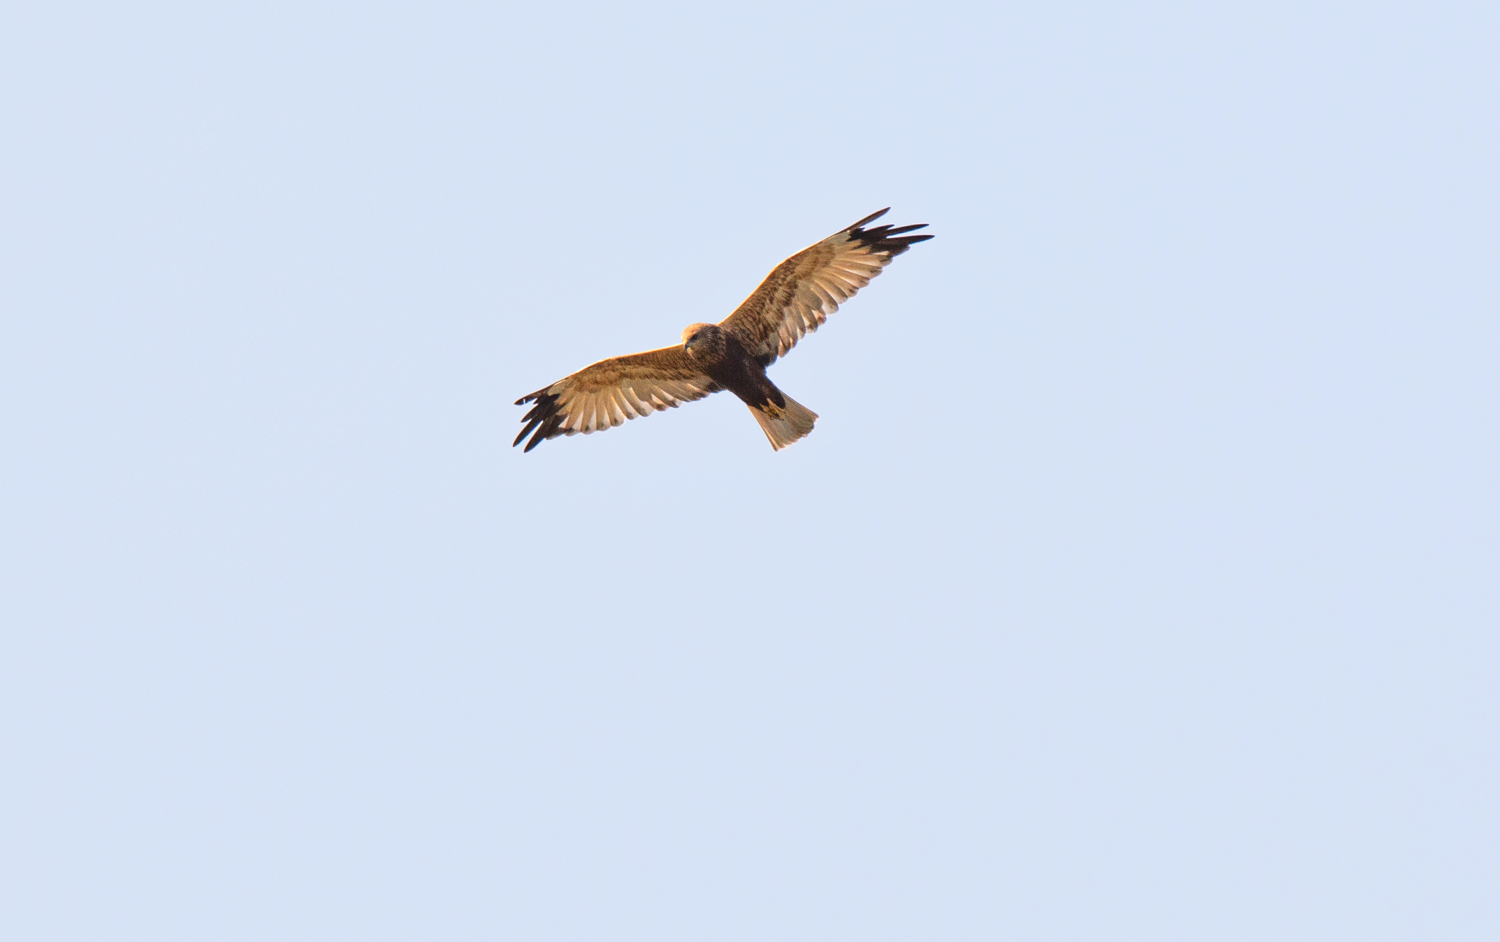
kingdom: Animalia
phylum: Chordata
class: Aves
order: Accipitriformes
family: Accipitridae
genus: Circus
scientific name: Circus aeruginosus
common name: Western marsh harrier
